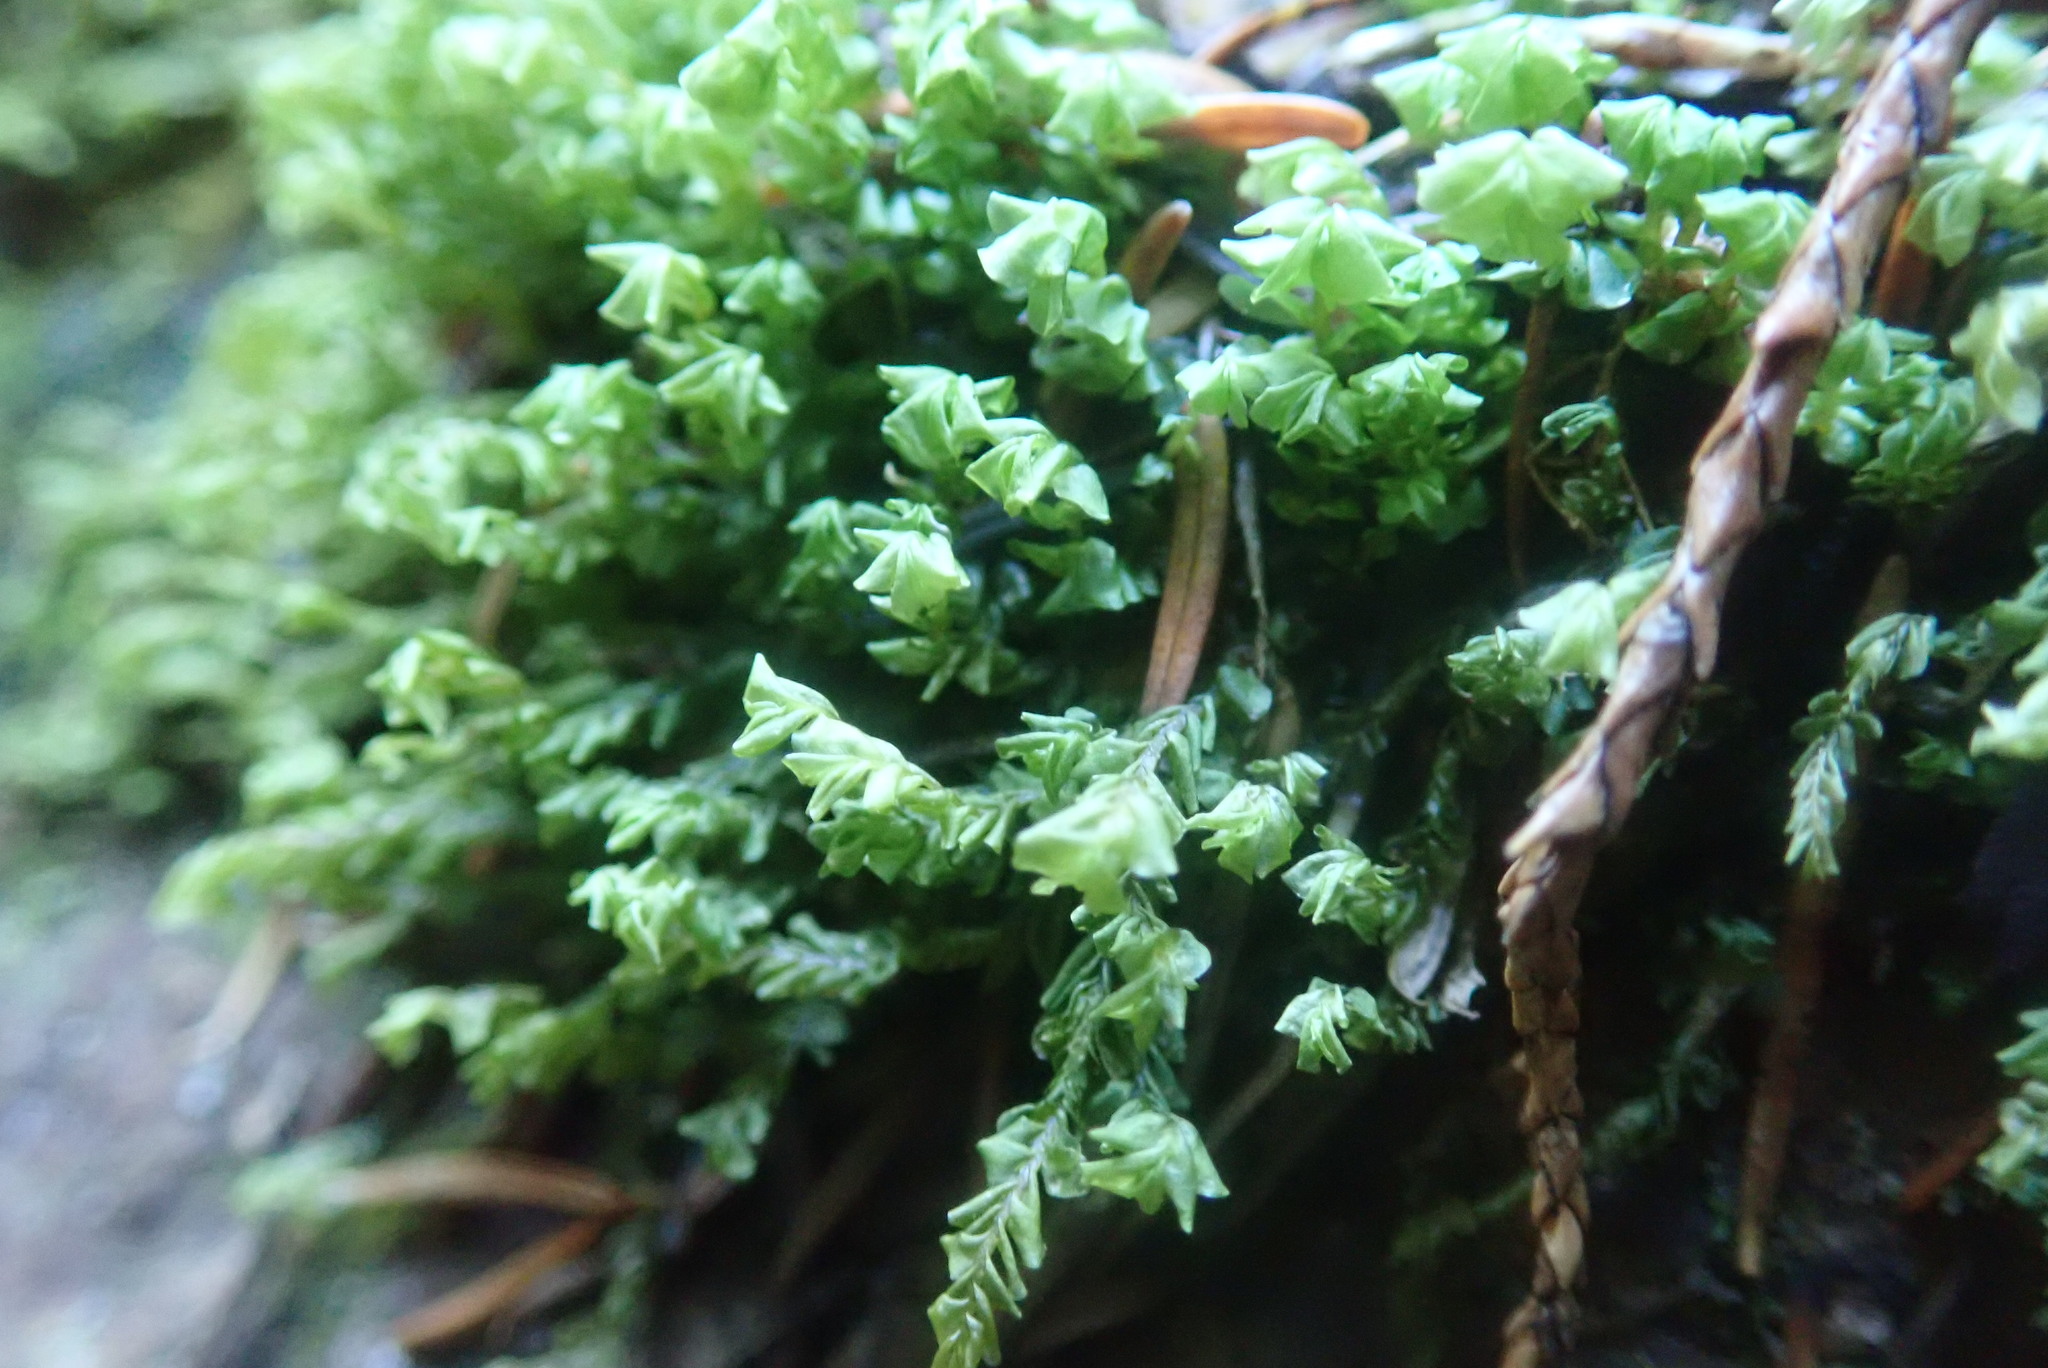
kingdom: Plantae
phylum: Marchantiophyta
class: Jungermanniopsida
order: Jungermanniales
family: Plagiochilaceae
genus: Plagiochila
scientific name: Plagiochila porelloides
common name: Lesser featherwort
